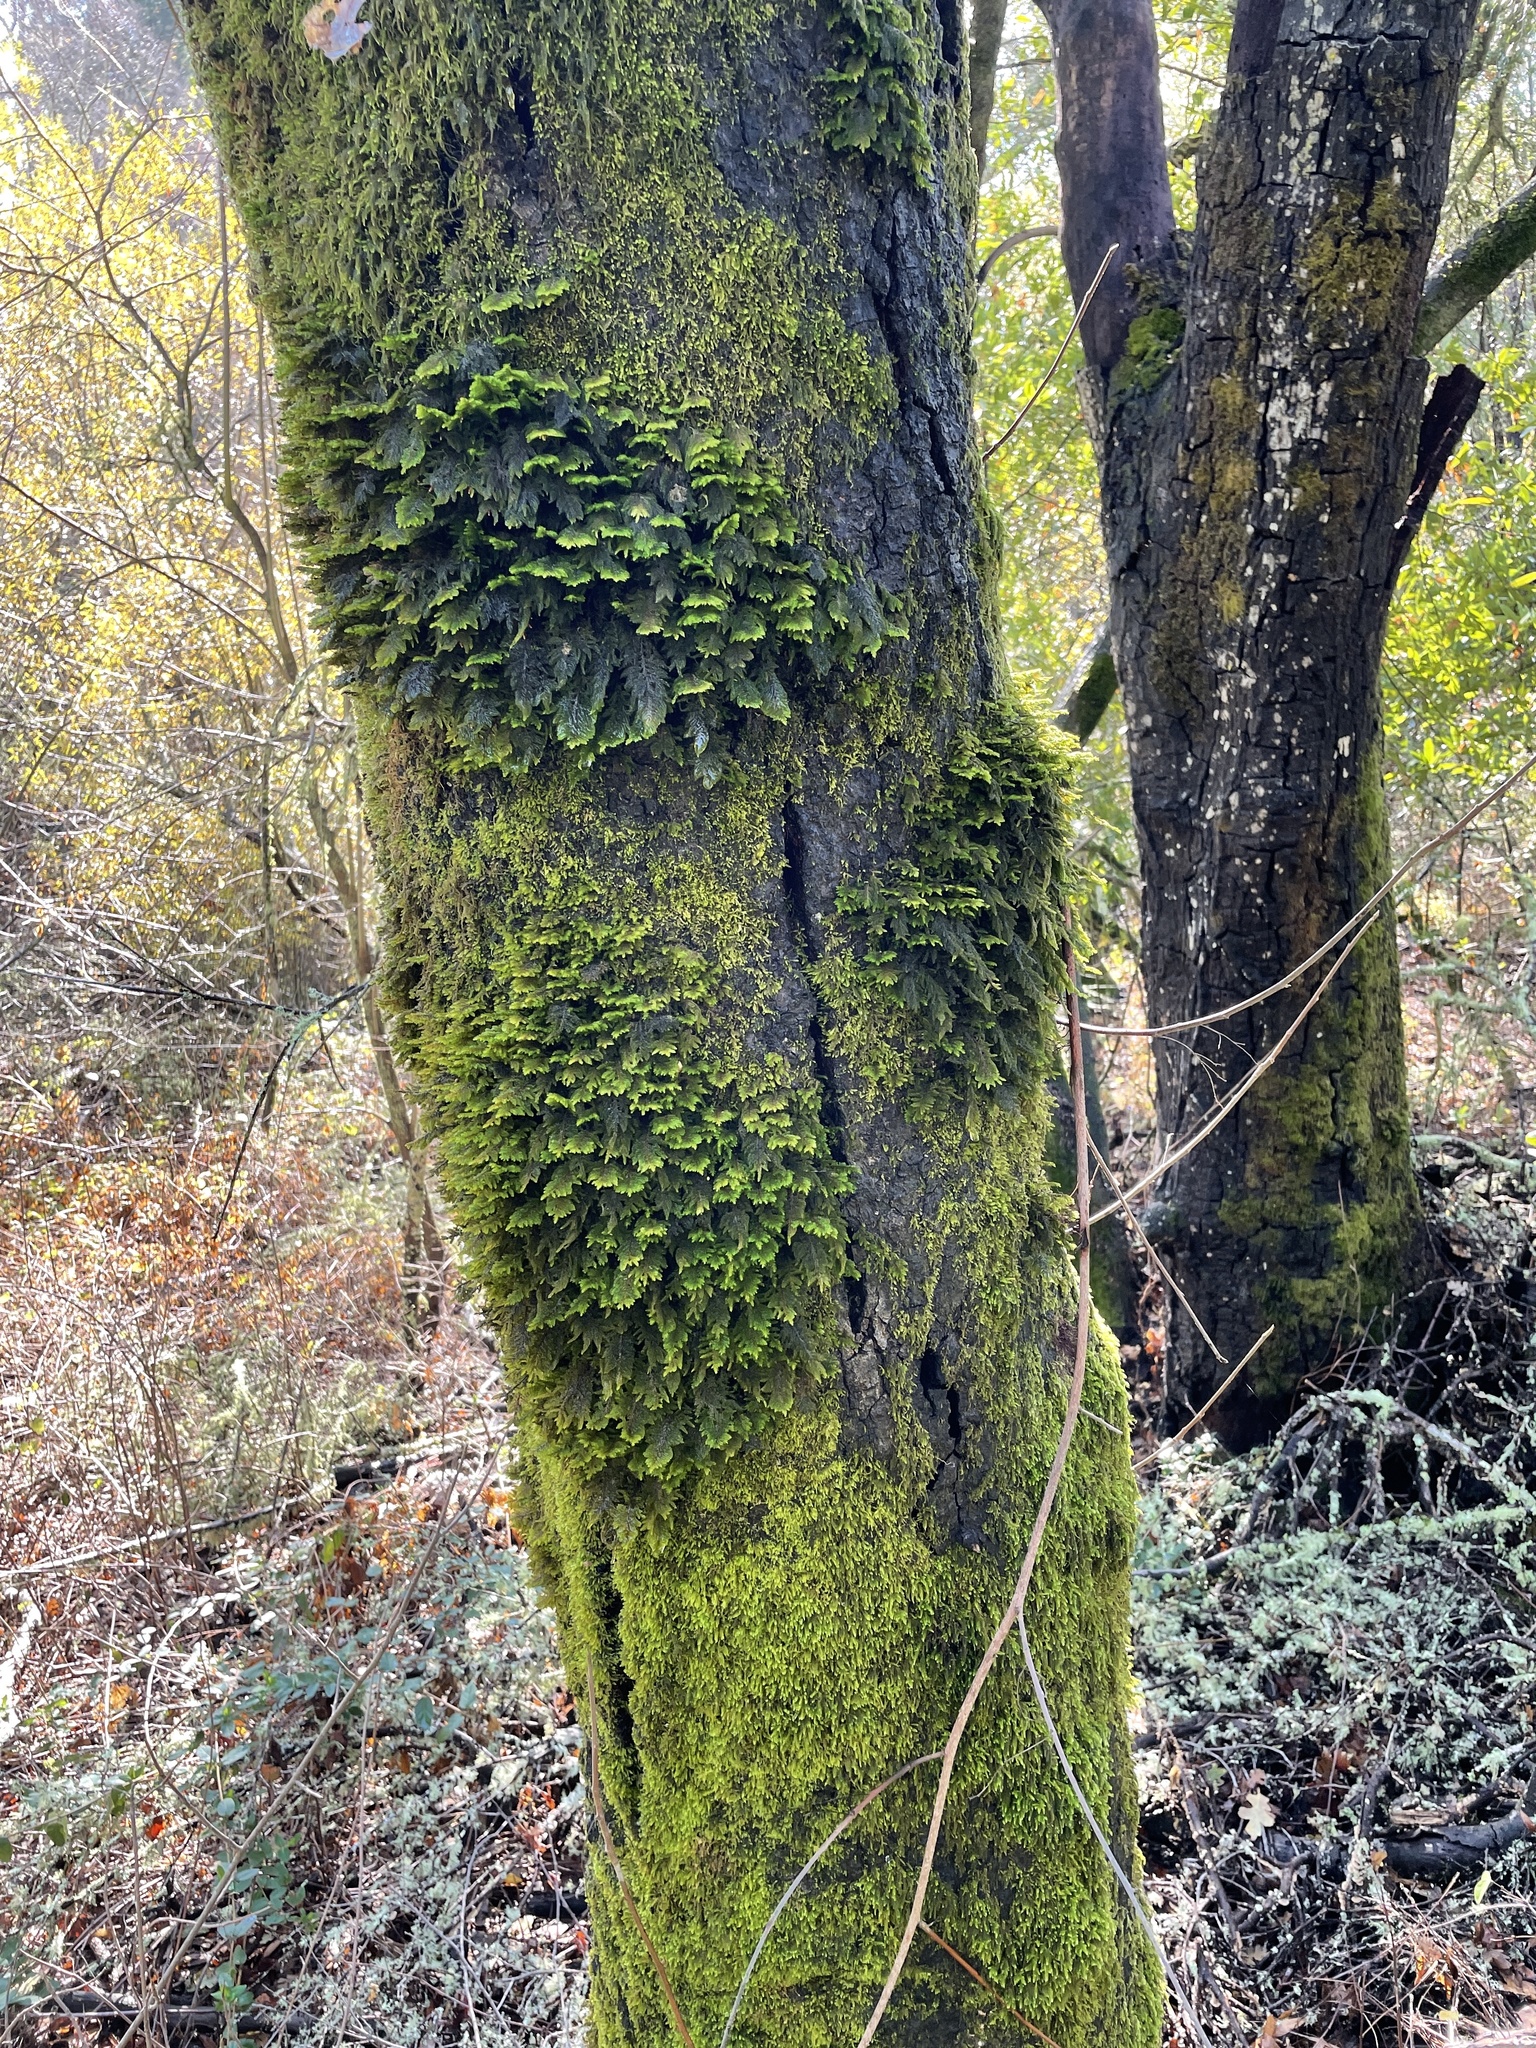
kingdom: Plantae
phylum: Bryophyta
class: Bryopsida
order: Hypnales
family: Cryphaeaceae
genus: Dendroalsia
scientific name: Dendroalsia abietina
